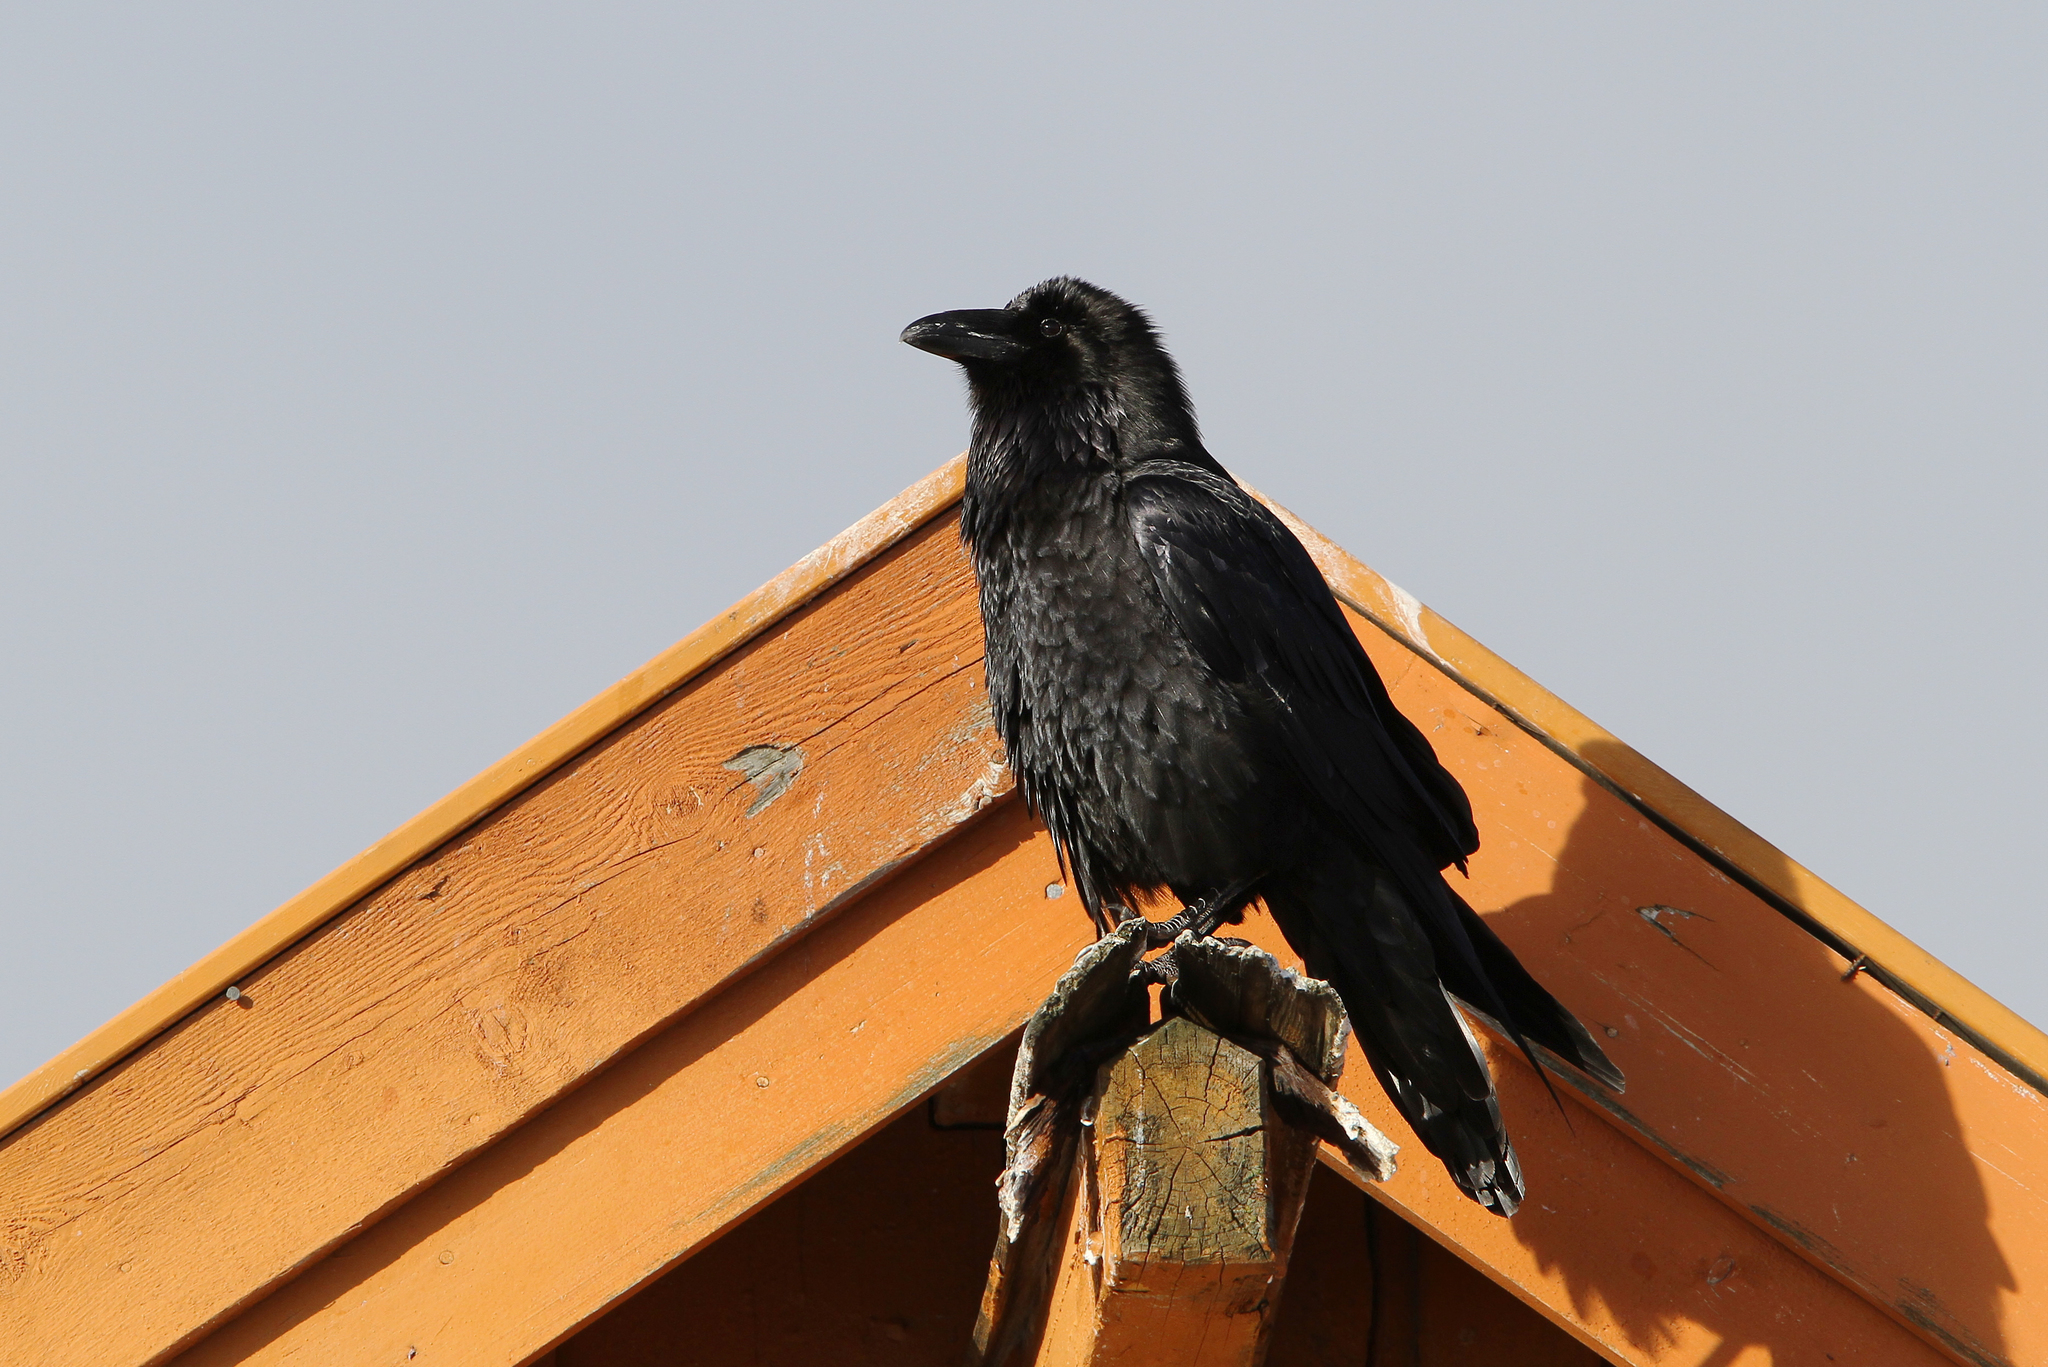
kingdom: Animalia
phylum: Chordata
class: Aves
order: Passeriformes
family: Corvidae
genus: Corvus
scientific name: Corvus corax
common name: Common raven
